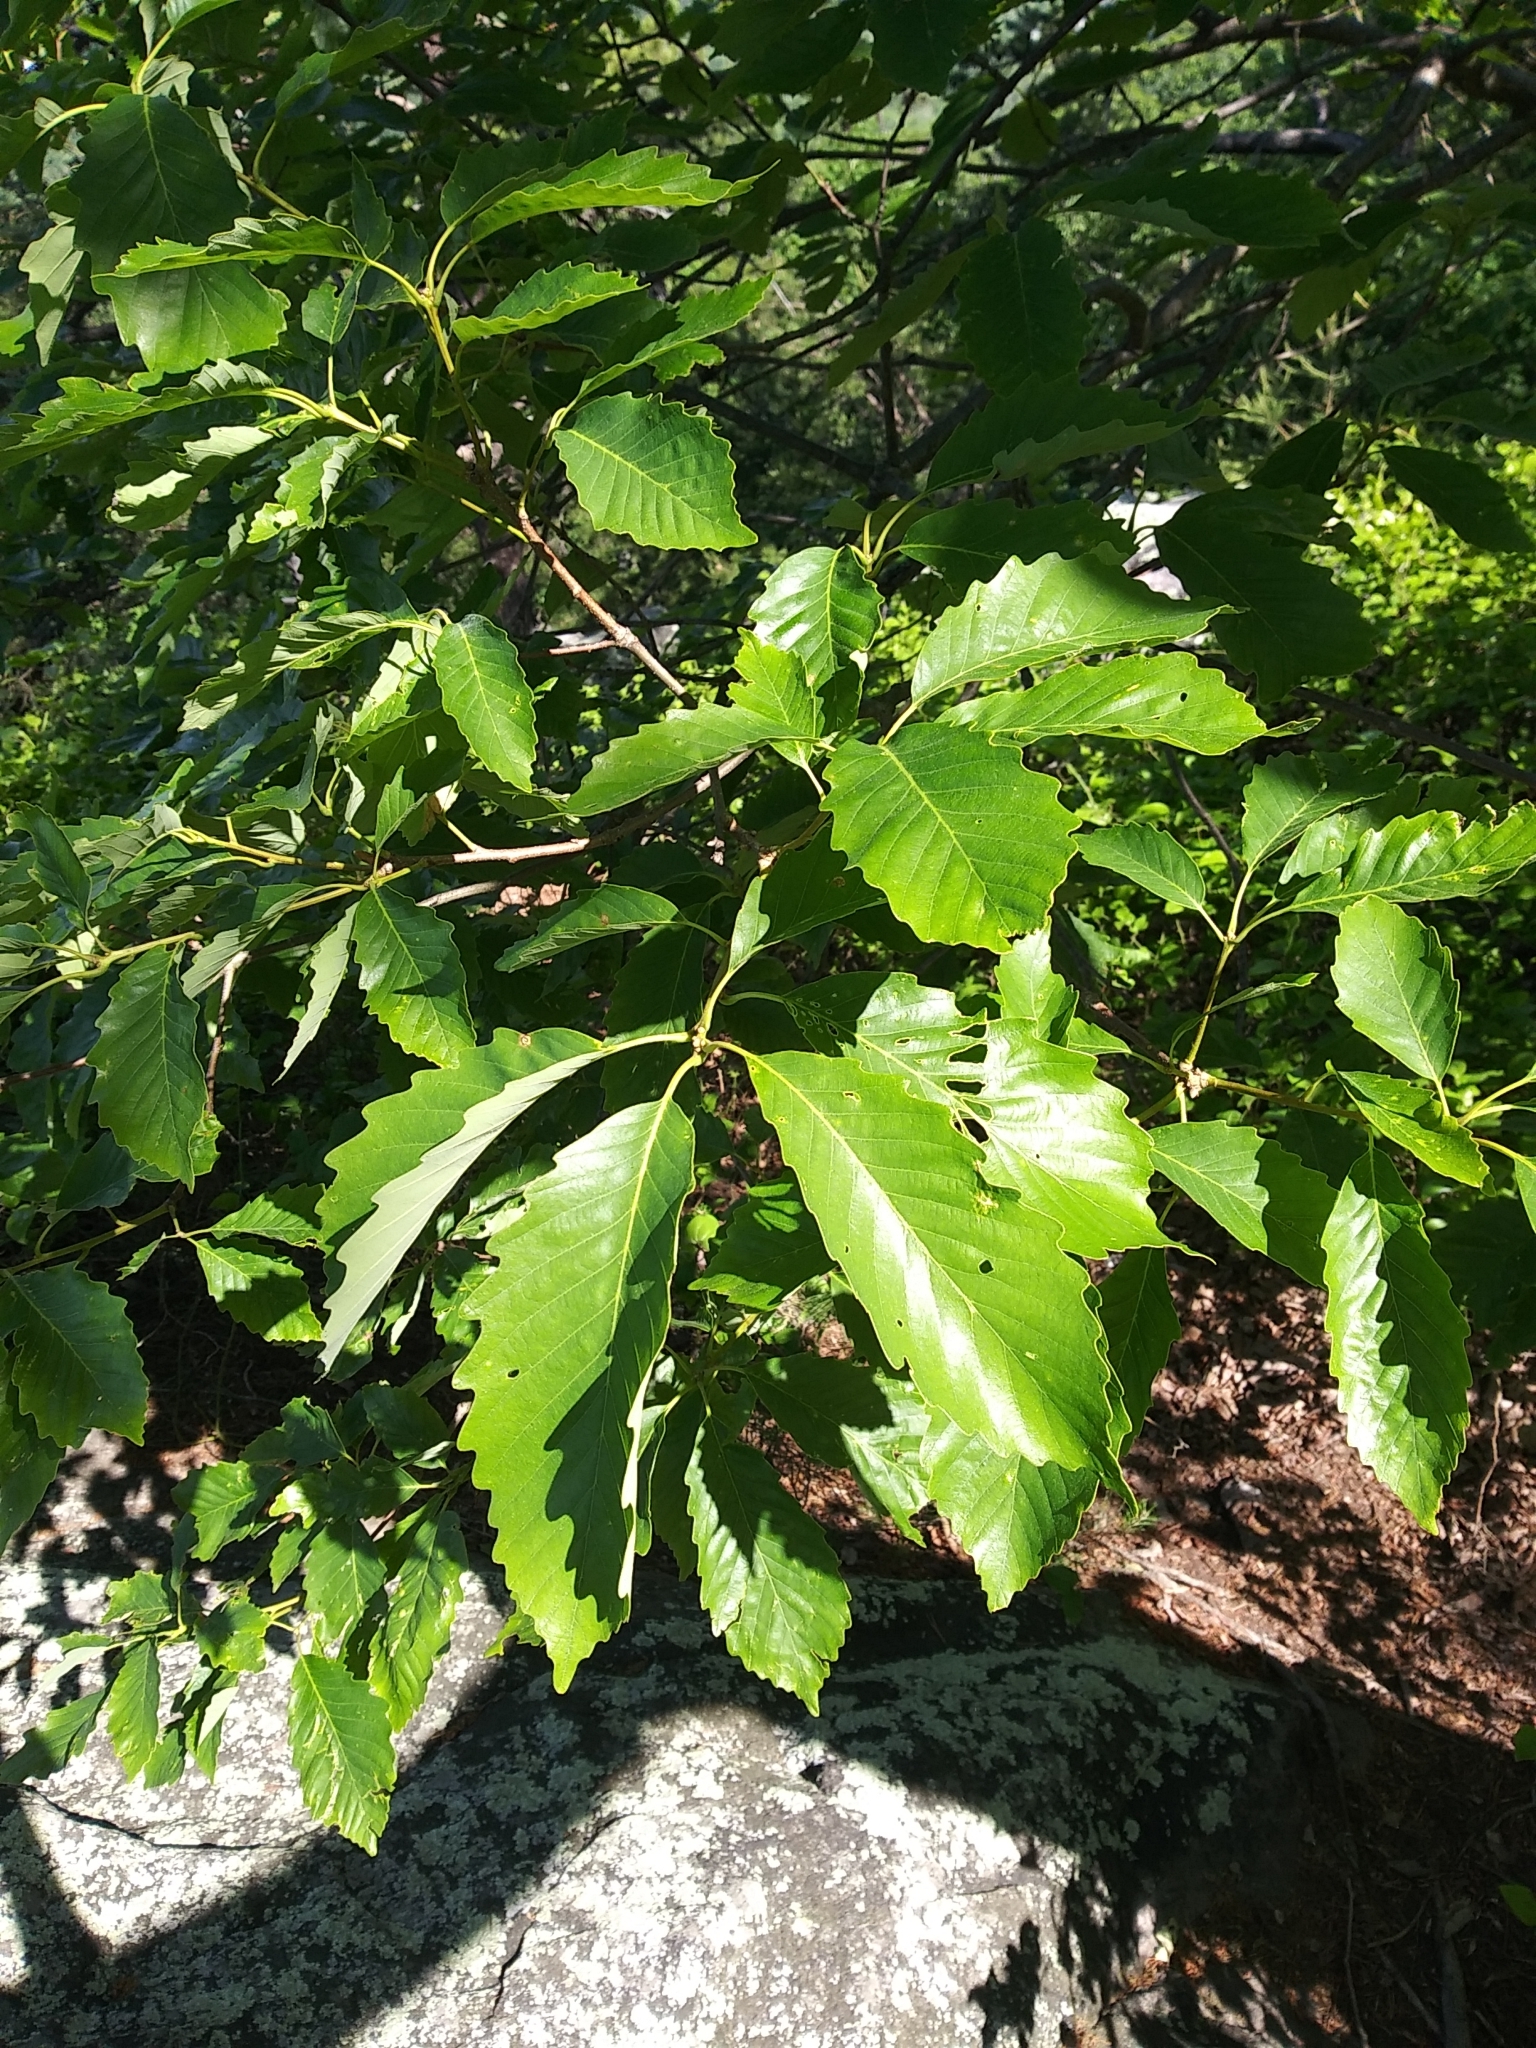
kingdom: Plantae
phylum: Tracheophyta
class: Magnoliopsida
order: Fagales
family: Fagaceae
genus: Quercus
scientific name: Quercus montana
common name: Chestnut oak
